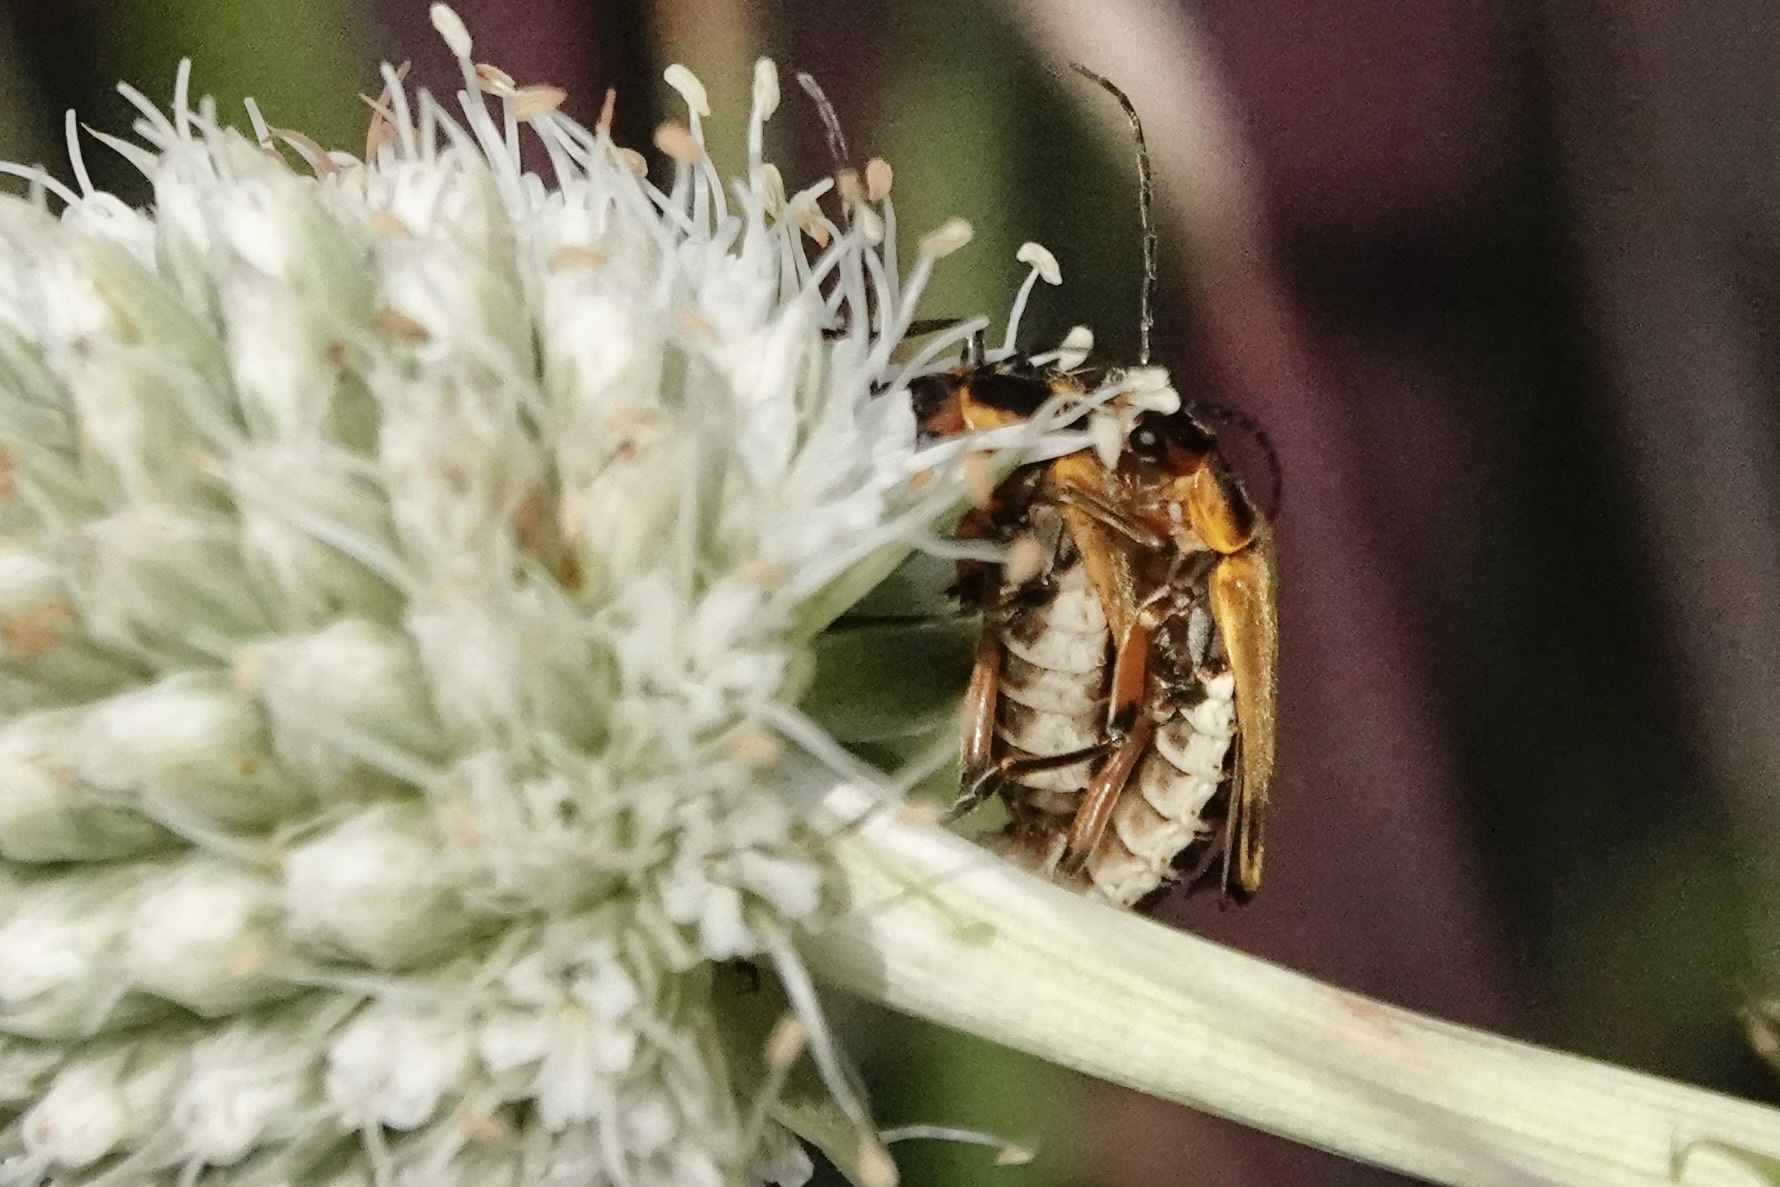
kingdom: Animalia
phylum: Arthropoda
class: Insecta
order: Coleoptera
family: Cantharidae
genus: Chauliognathus
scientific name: Chauliognathus marginatus
